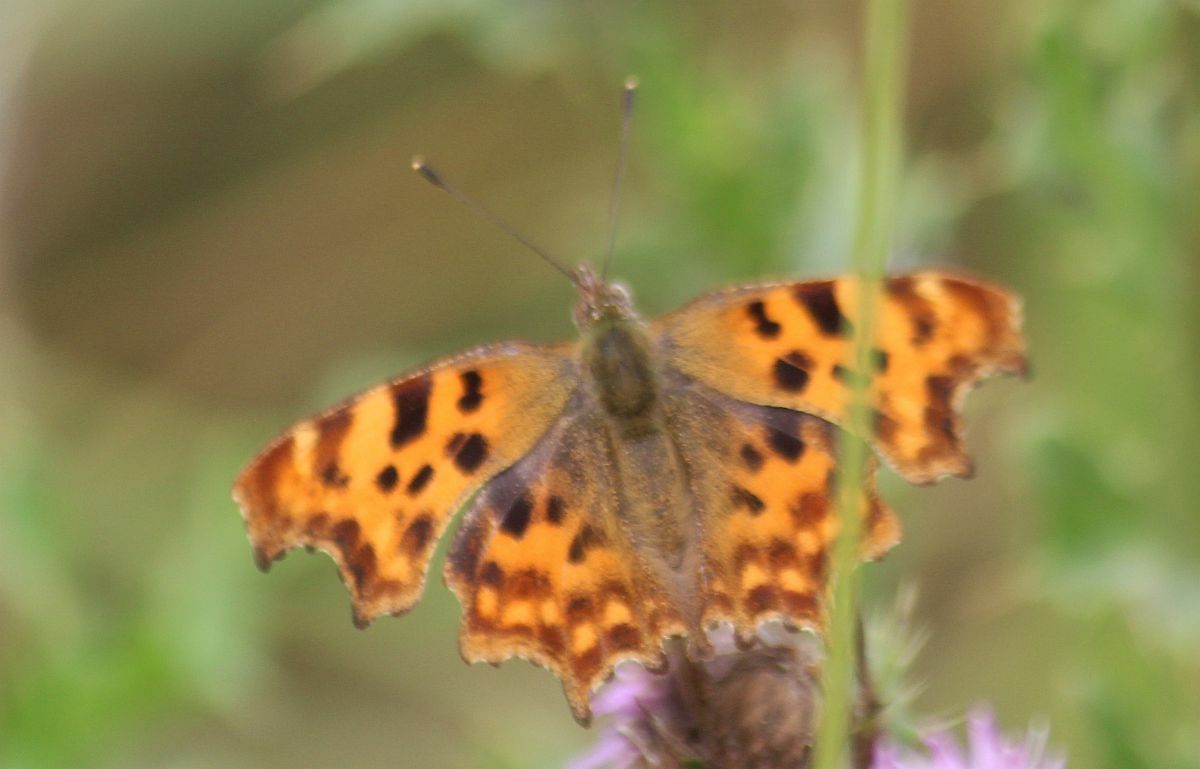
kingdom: Animalia
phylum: Arthropoda
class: Insecta
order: Lepidoptera
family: Nymphalidae
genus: Polygonia
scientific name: Polygonia c-album
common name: Comma
